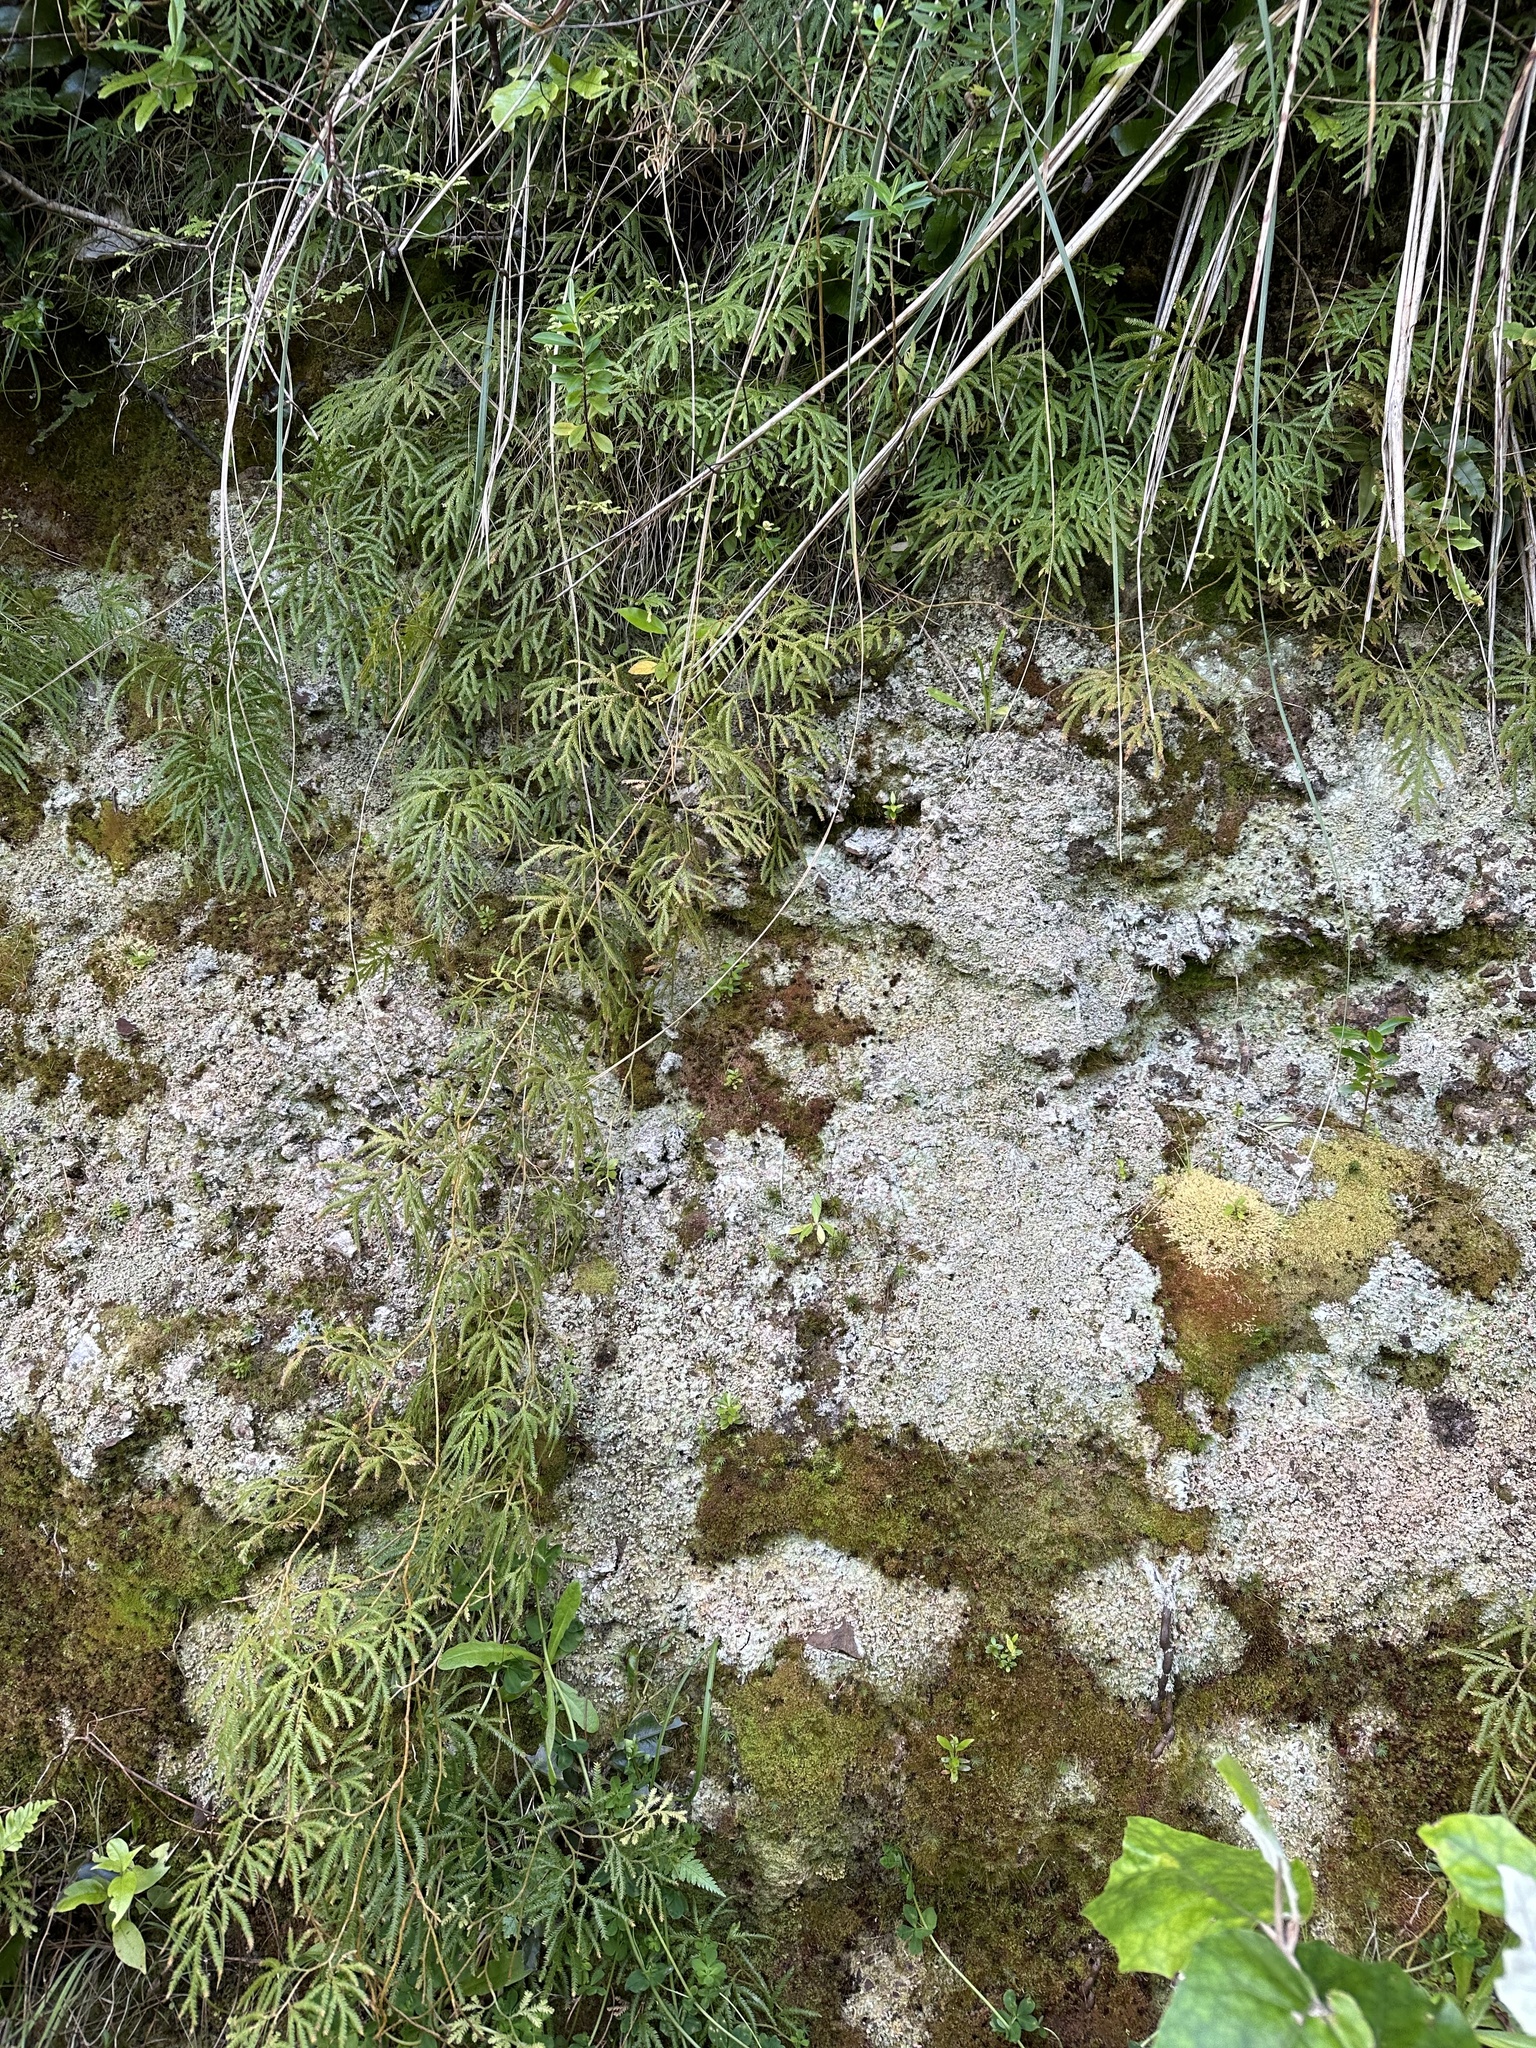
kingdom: Plantae
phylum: Tracheophyta
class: Lycopodiopsida
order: Lycopodiales
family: Lycopodiaceae
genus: Lycopodium
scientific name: Lycopodium volubile
